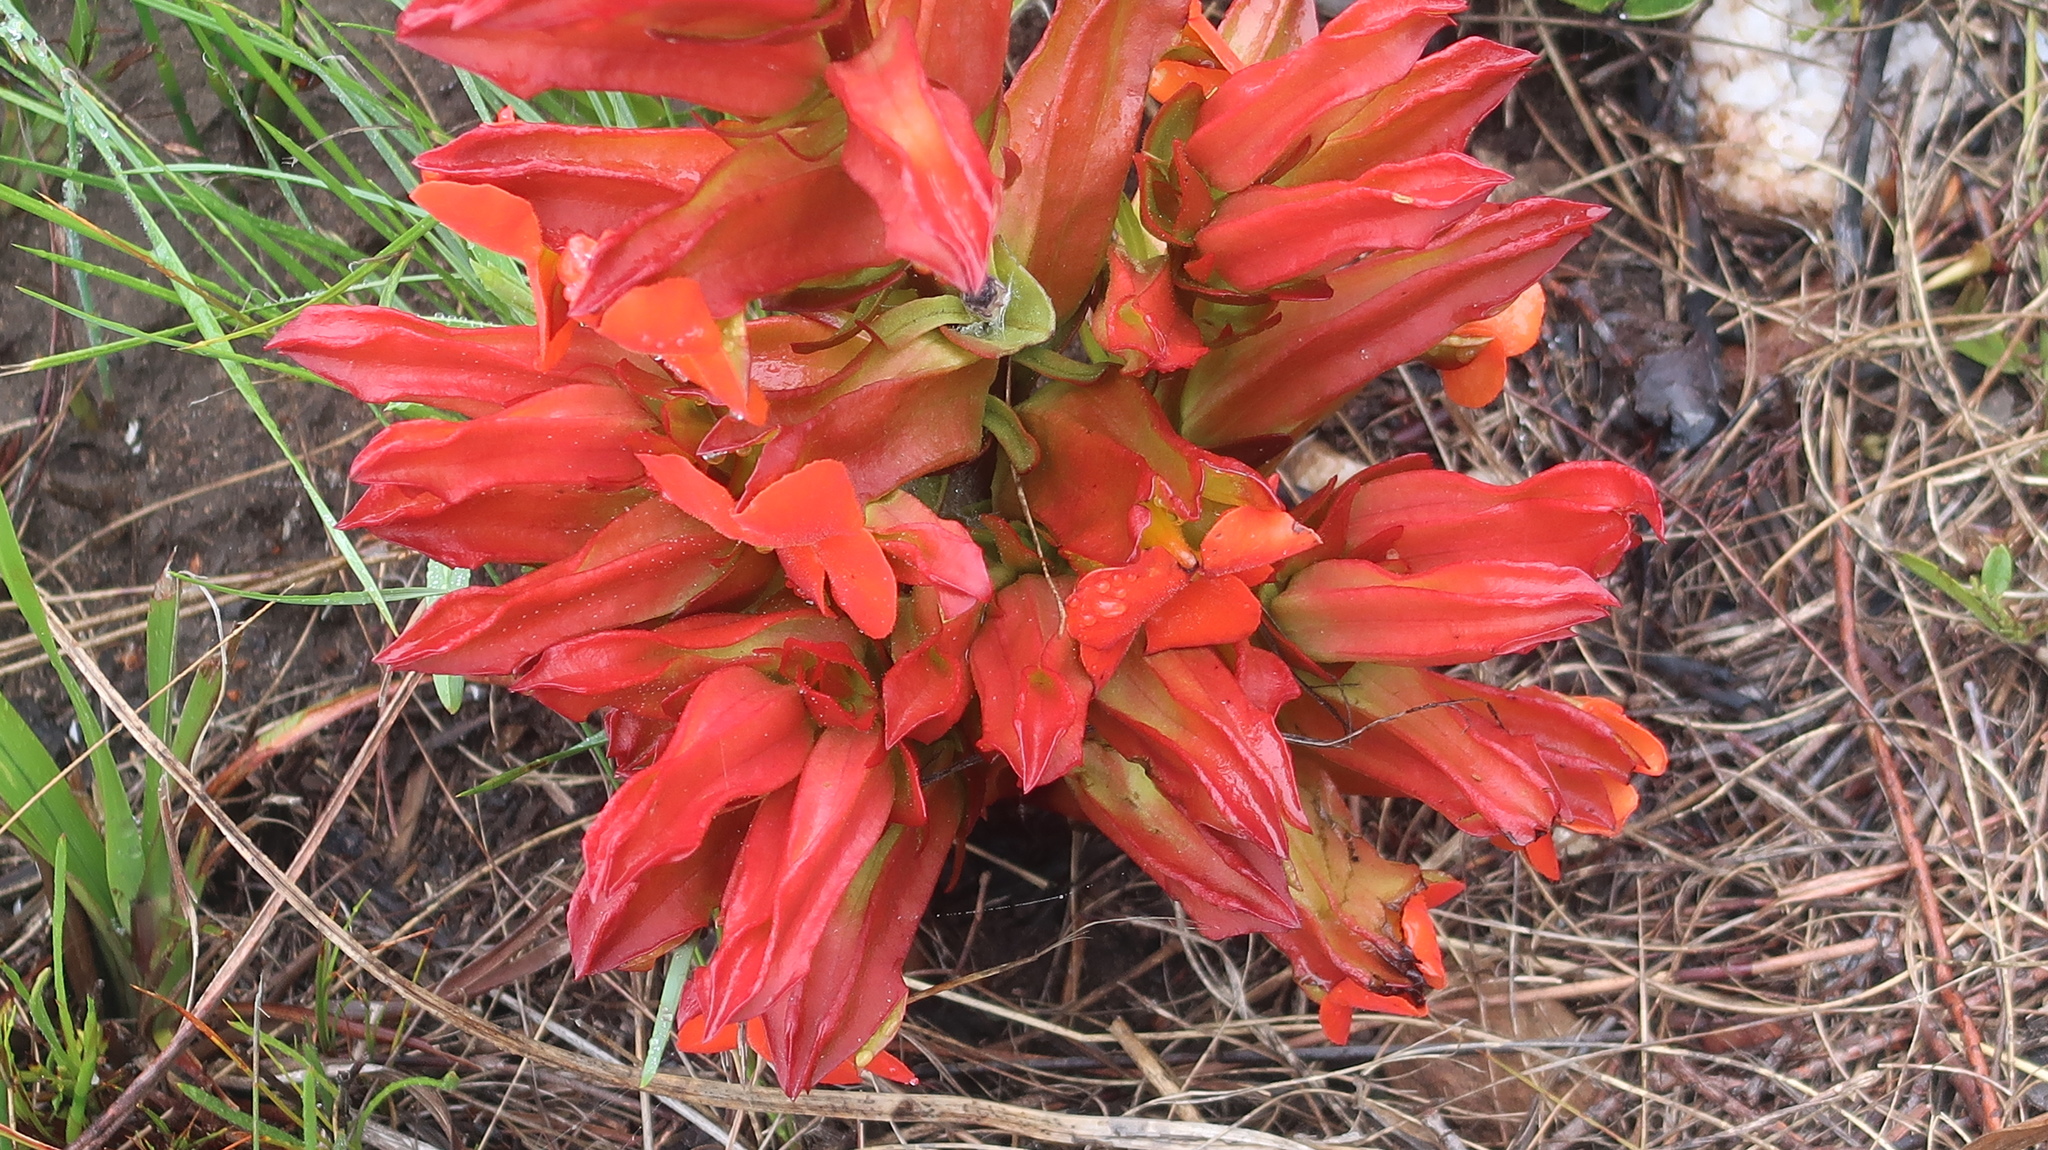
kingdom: Plantae
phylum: Tracheophyta
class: Magnoliopsida
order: Lamiales
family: Orobanchaceae
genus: Harveya
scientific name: Harveya bolusii
